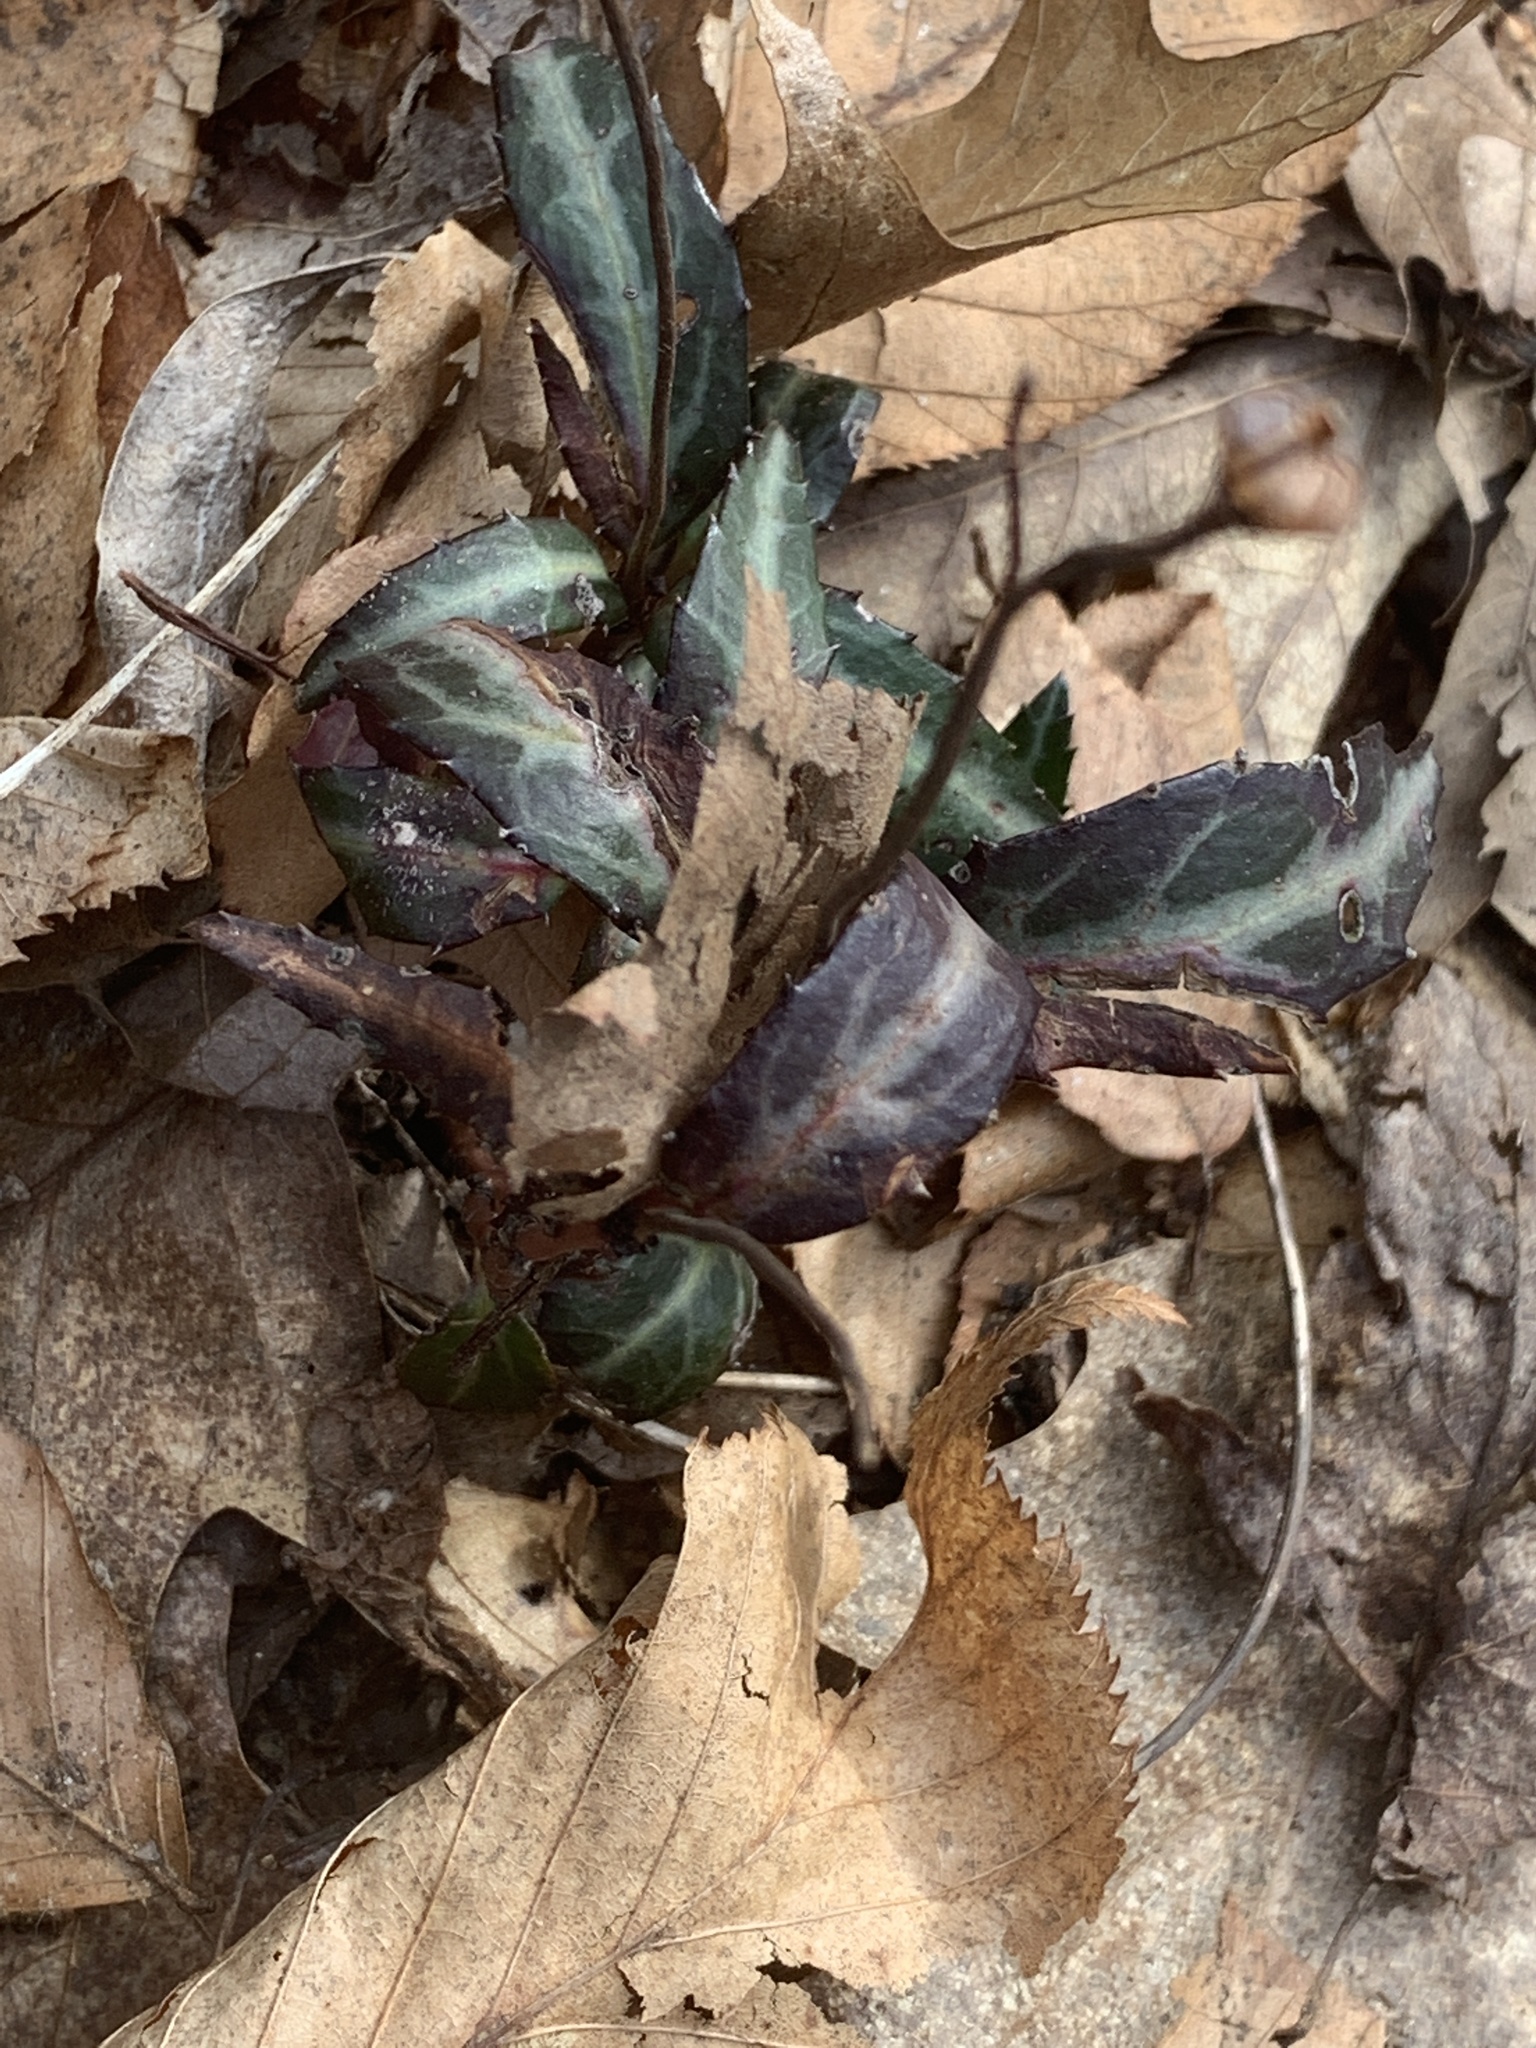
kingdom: Plantae
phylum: Tracheophyta
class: Magnoliopsida
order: Ericales
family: Ericaceae
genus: Chimaphila
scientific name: Chimaphila maculata
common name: Spotted pipsissewa
